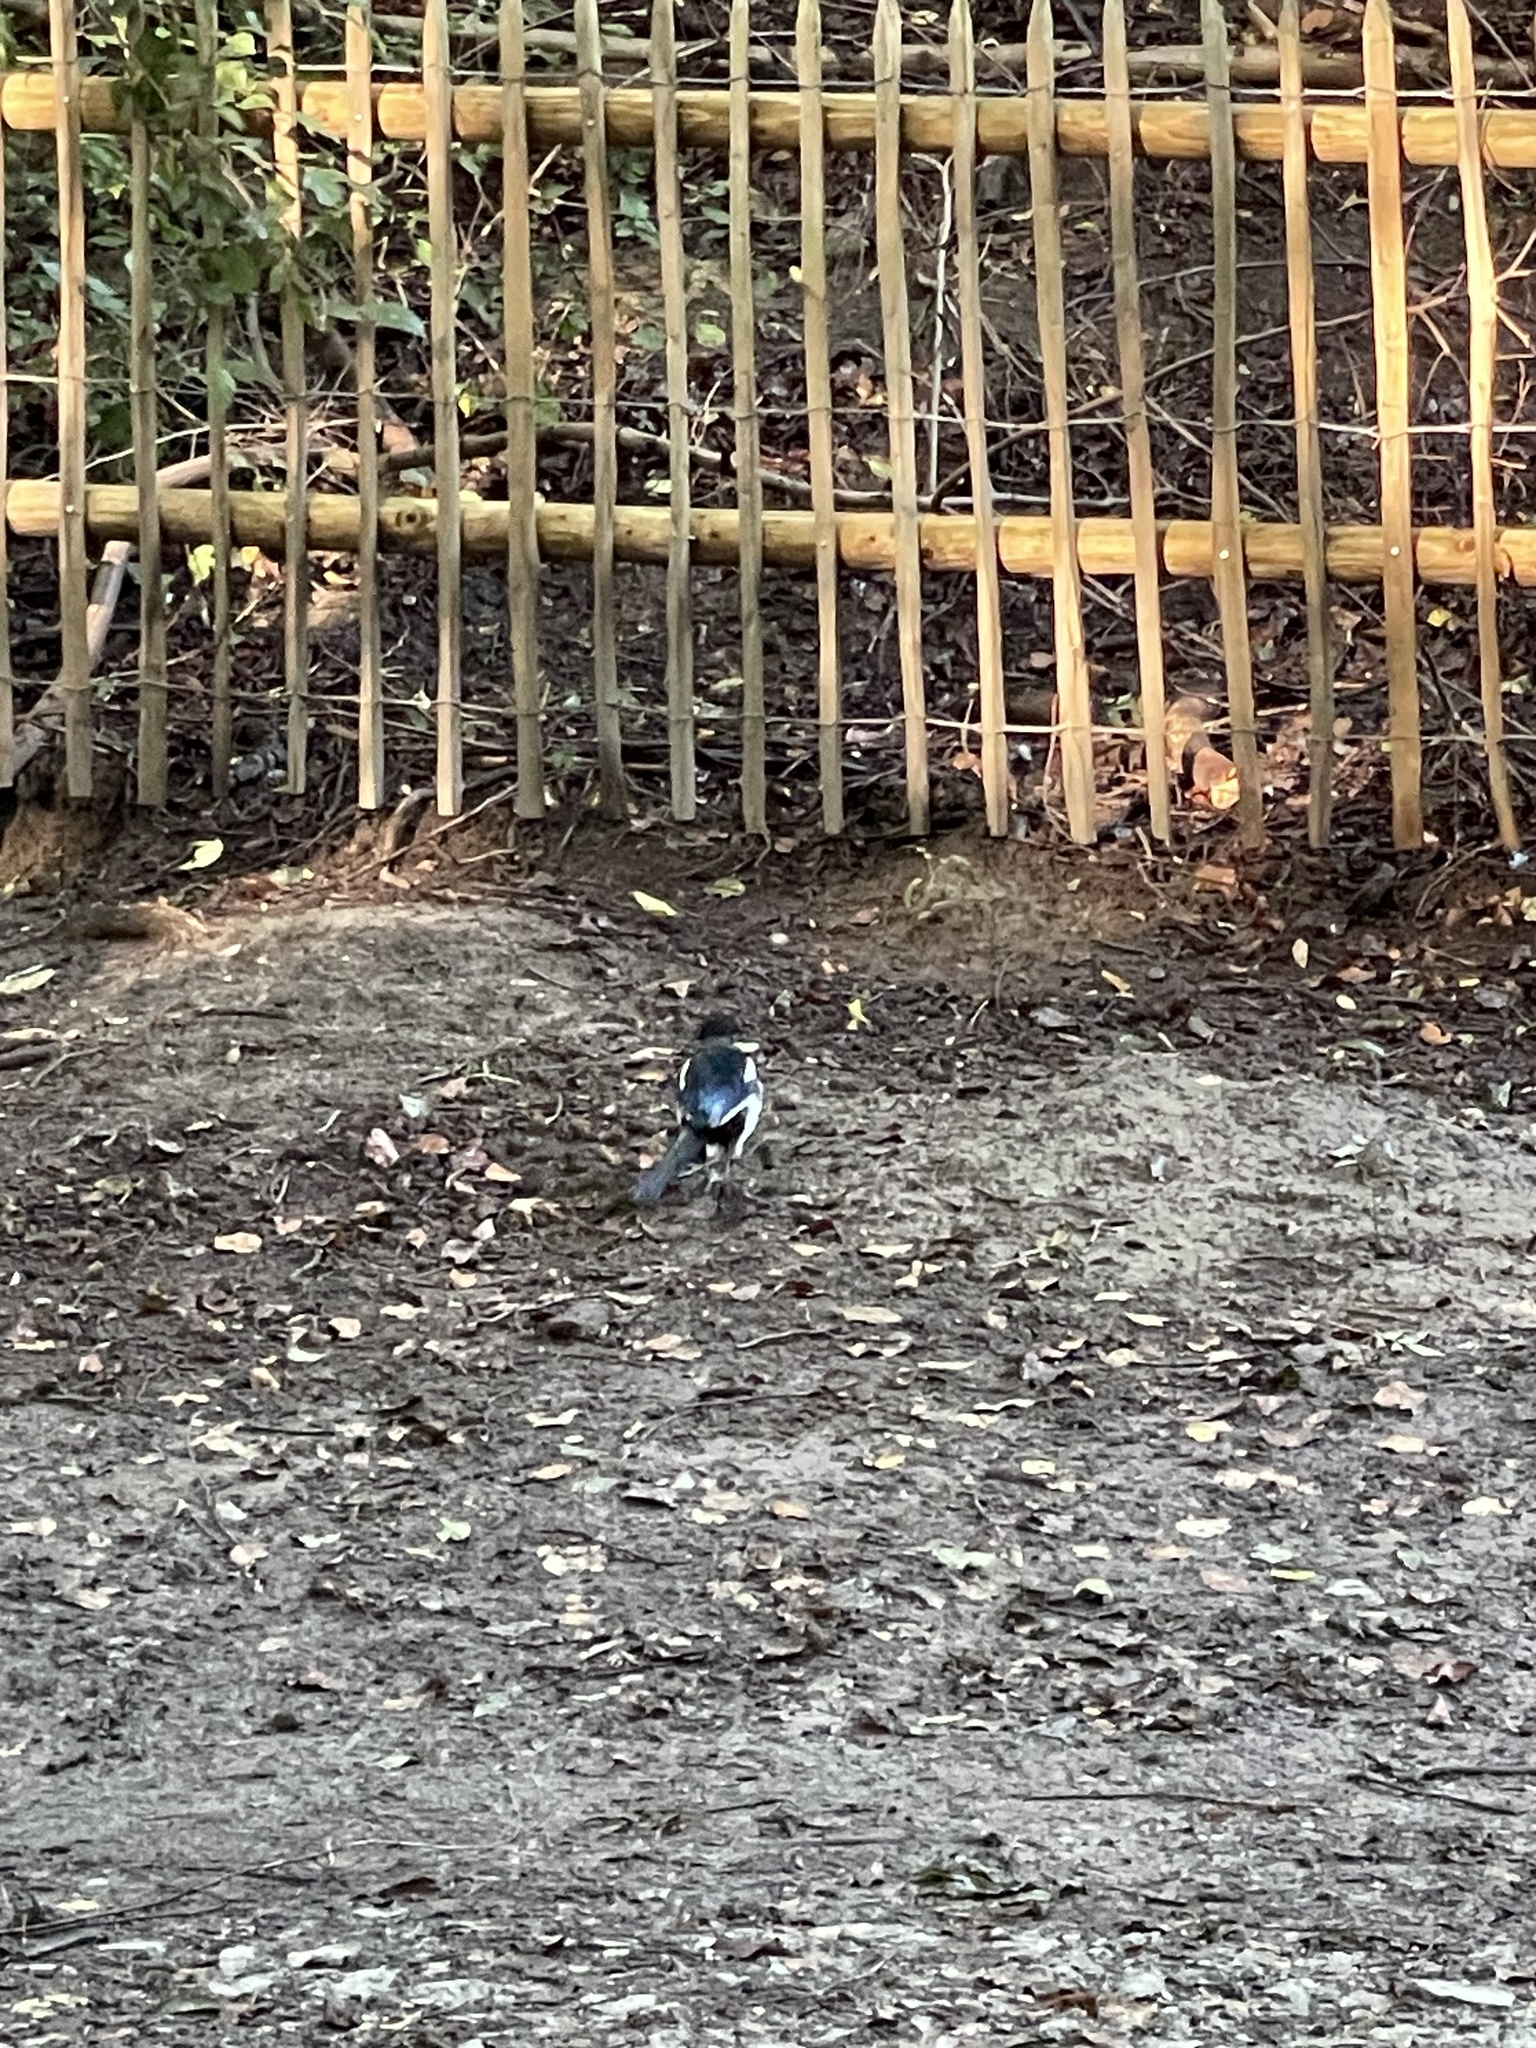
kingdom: Animalia
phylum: Chordata
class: Aves
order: Passeriformes
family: Corvidae
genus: Pica
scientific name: Pica pica
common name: Eurasian magpie
